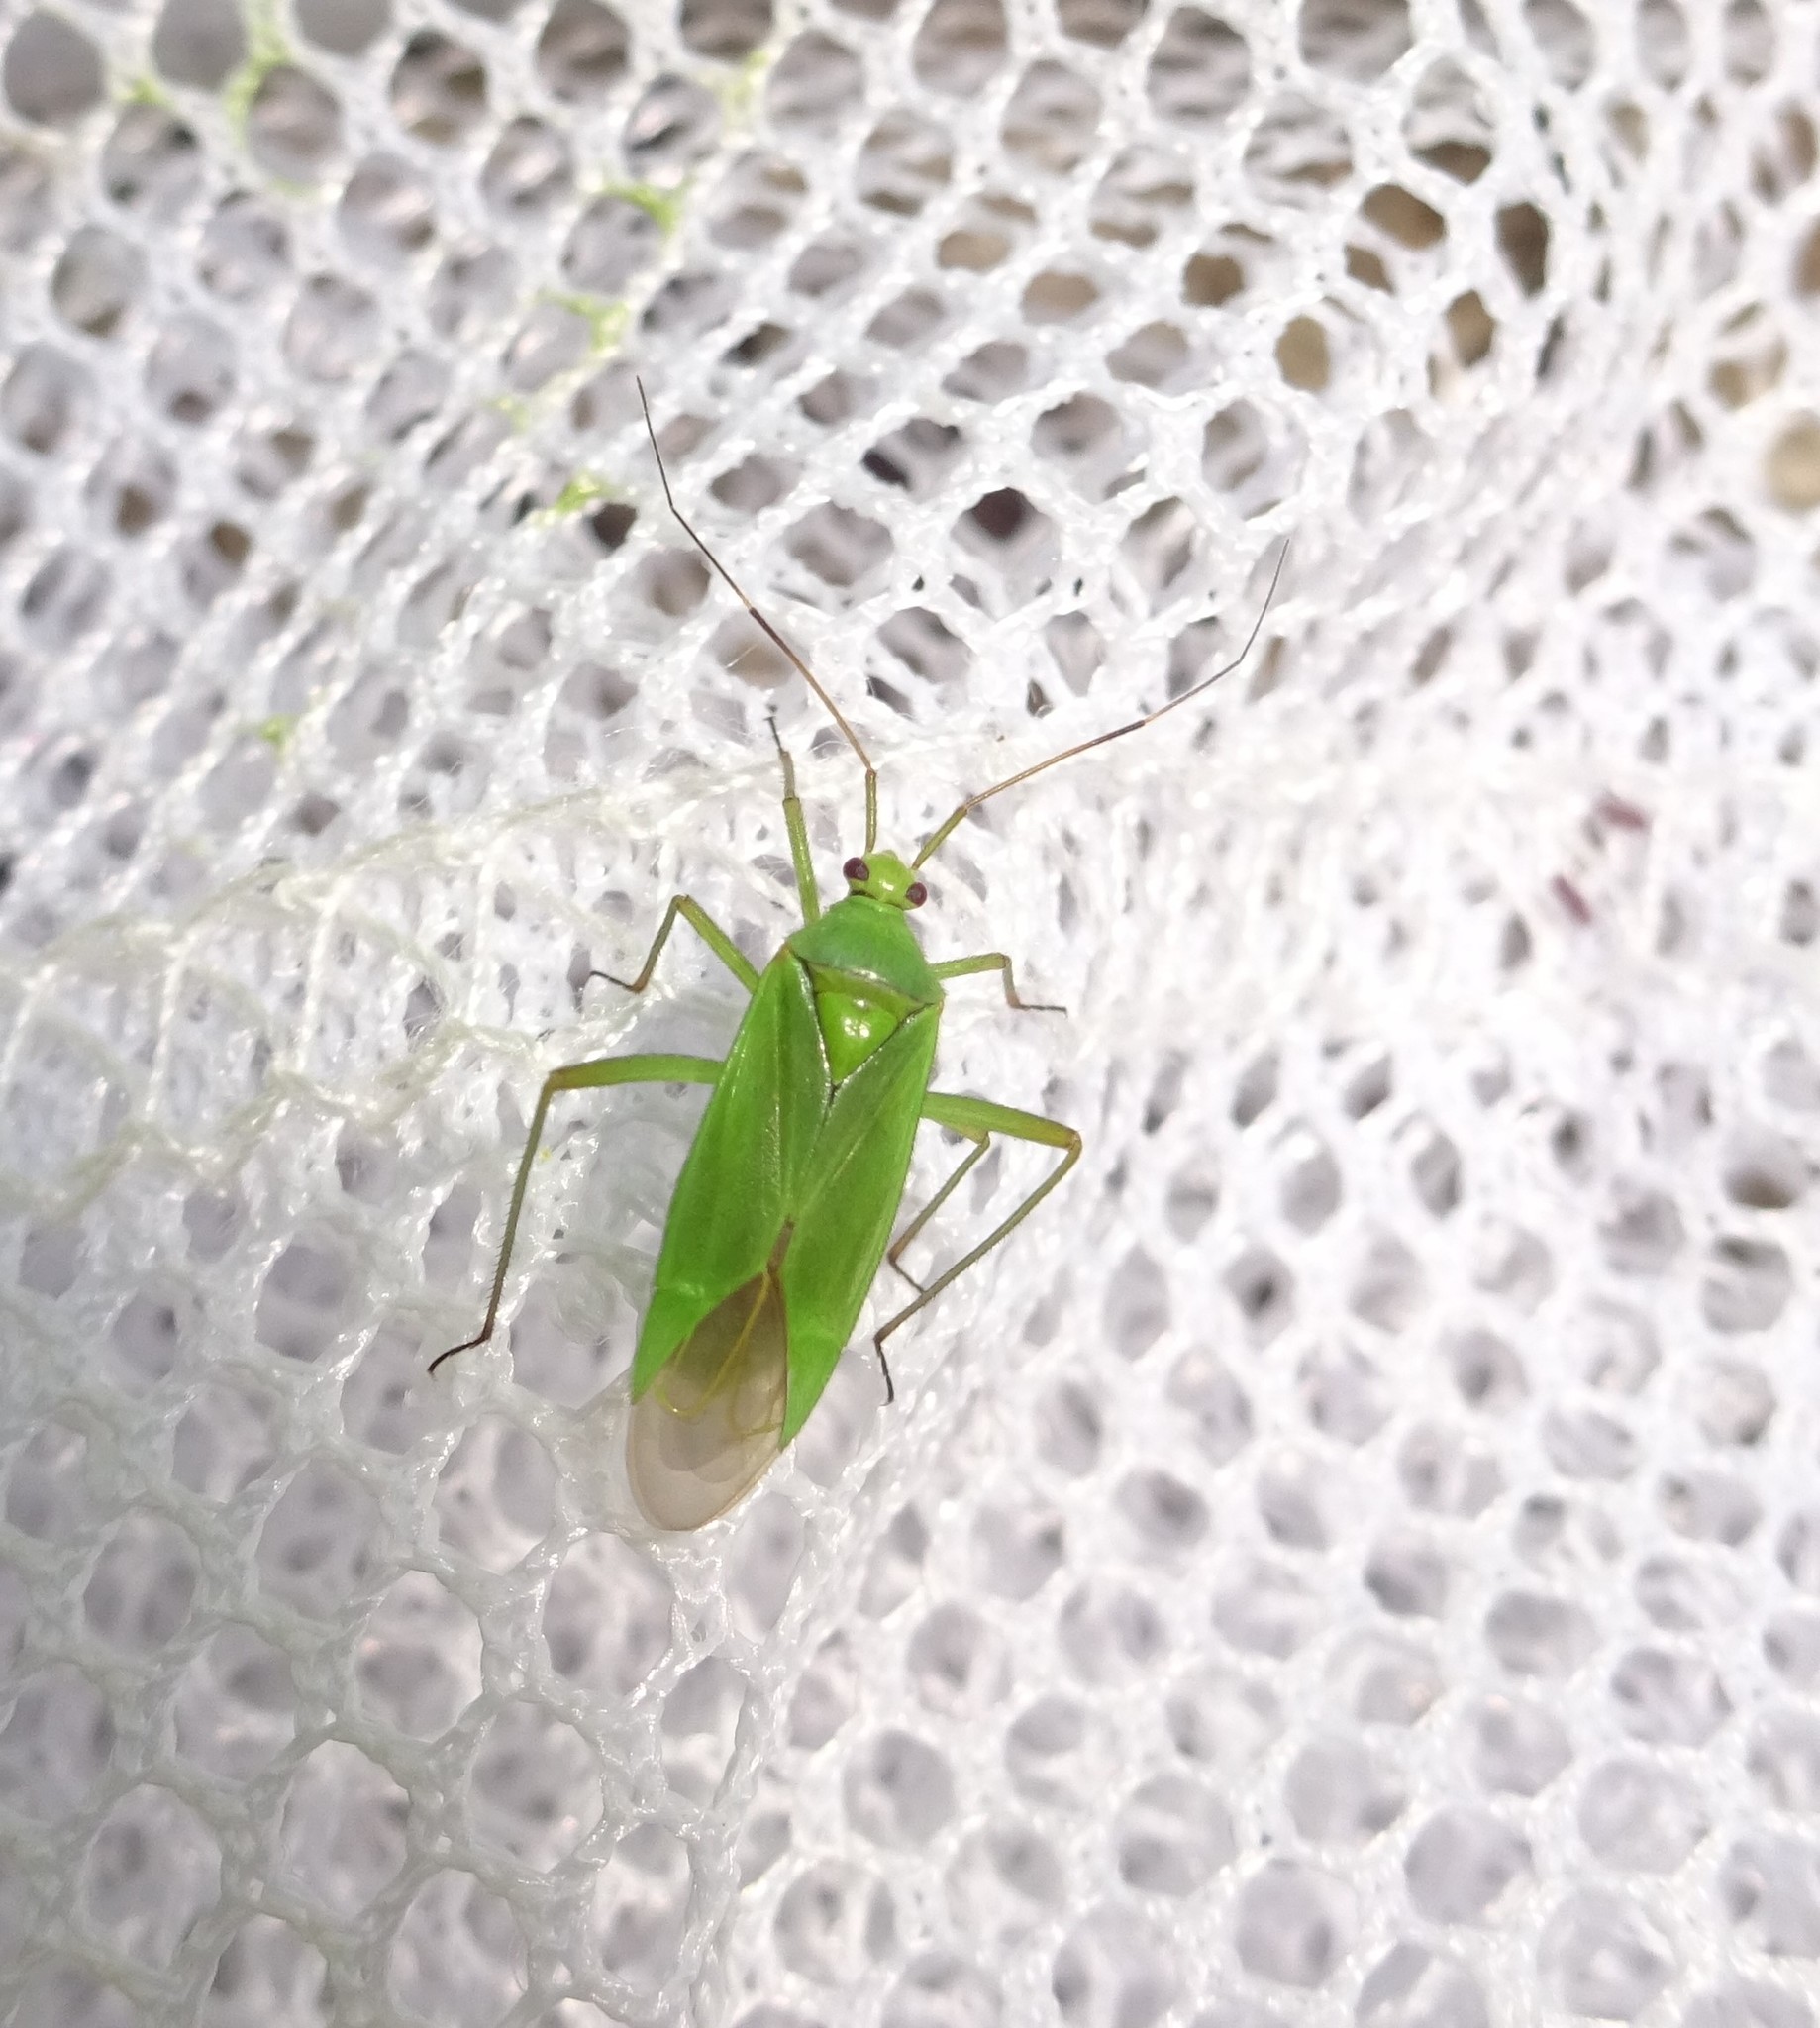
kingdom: Animalia
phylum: Arthropoda
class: Insecta
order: Hemiptera
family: Miridae
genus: Calocoris
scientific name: Calocoris alpestris
